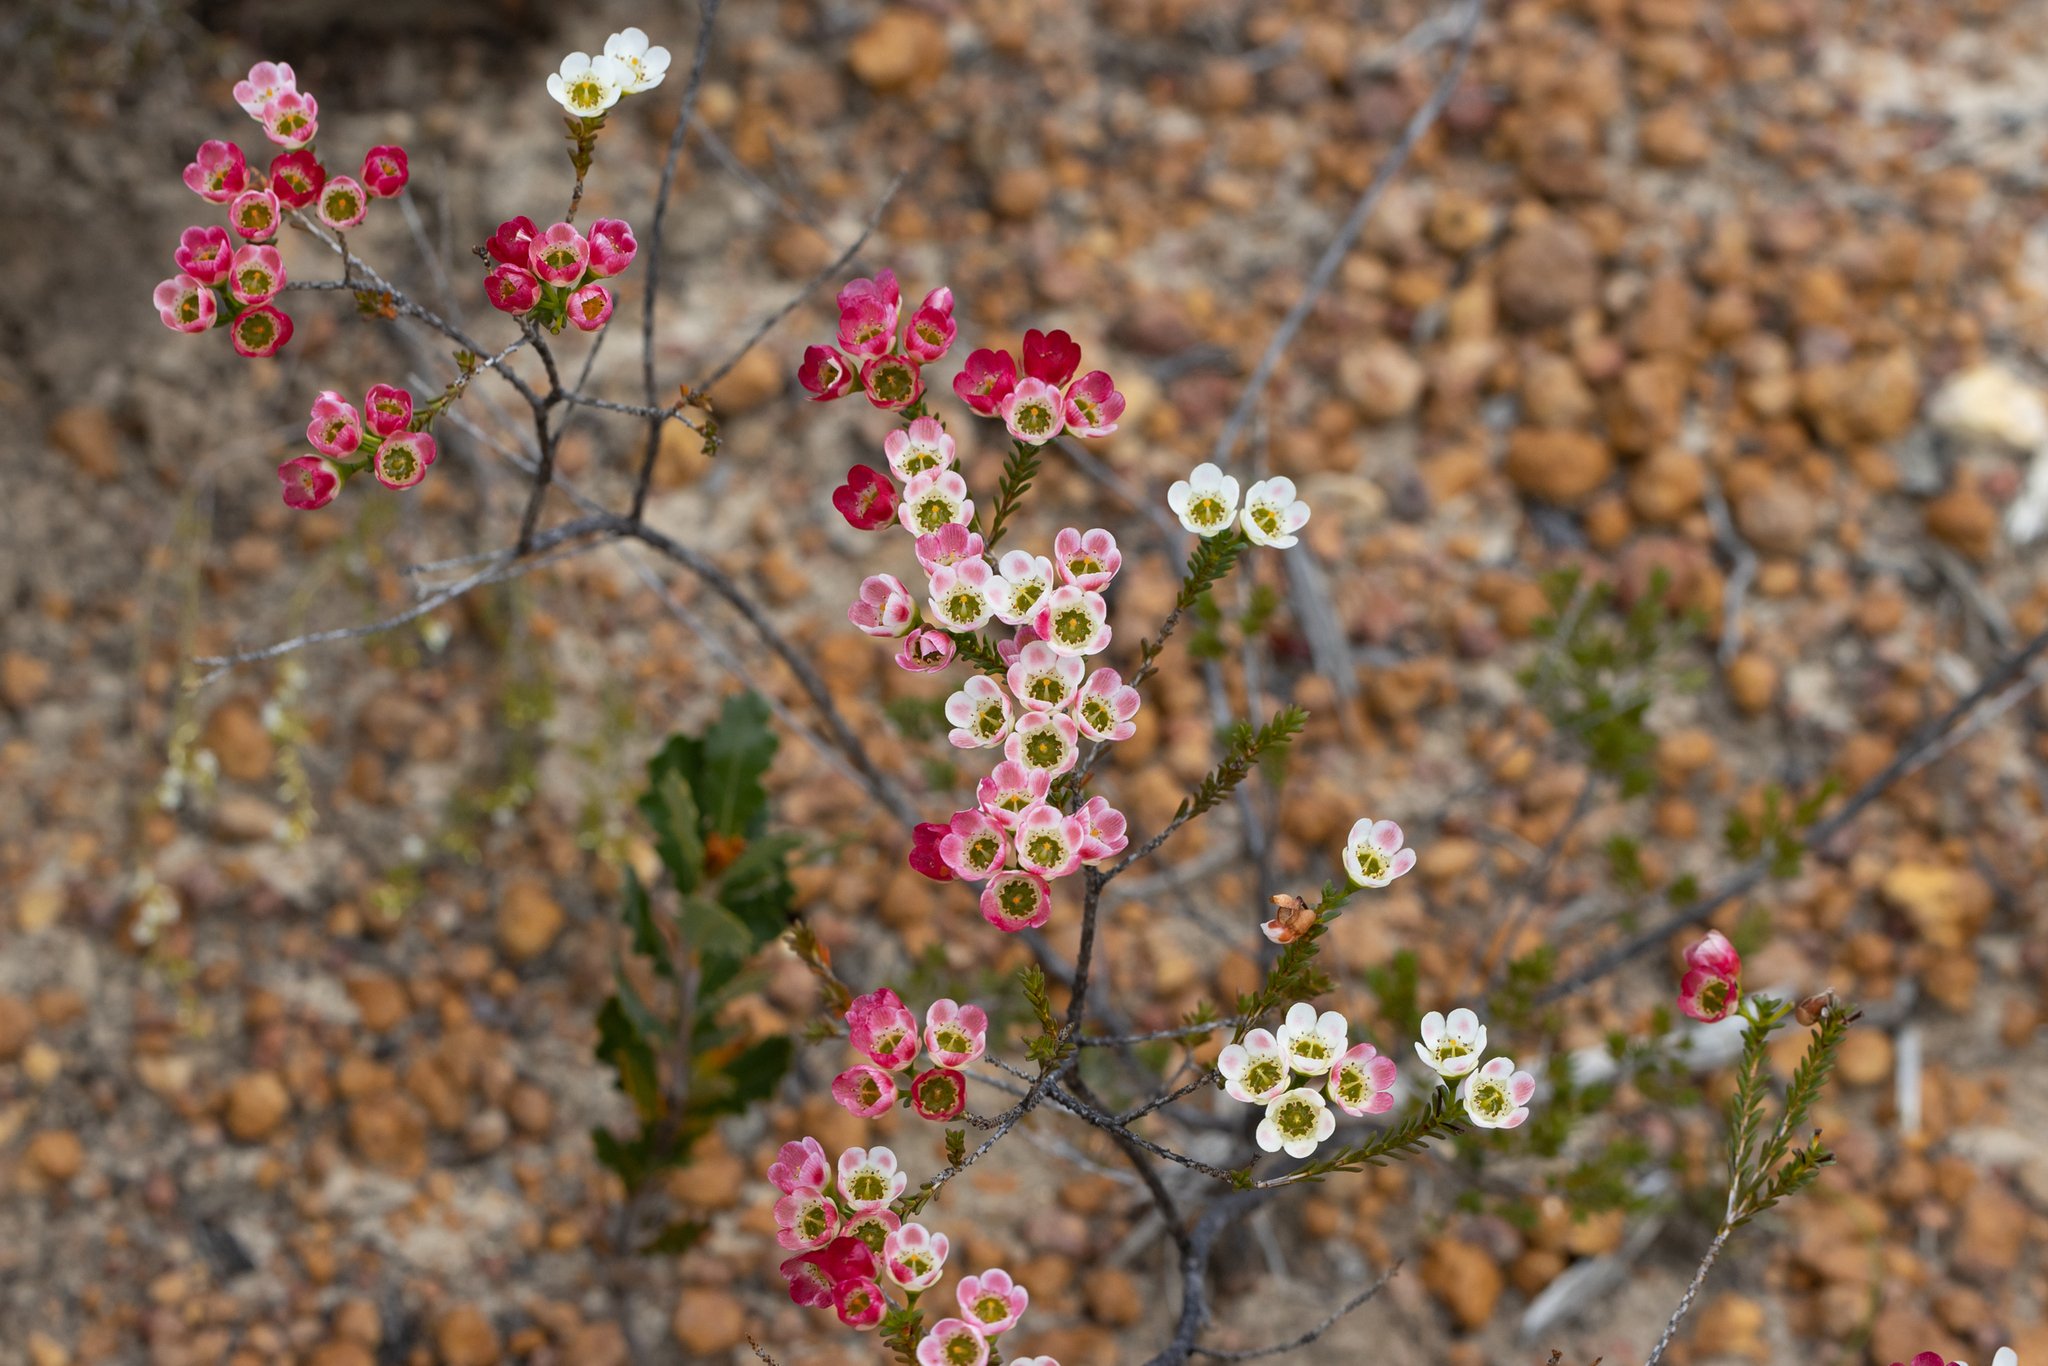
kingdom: Plantae
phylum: Tracheophyta
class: Magnoliopsida
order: Myrtales
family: Myrtaceae
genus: Chamelaucium
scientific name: Chamelaucium megalopetalum
